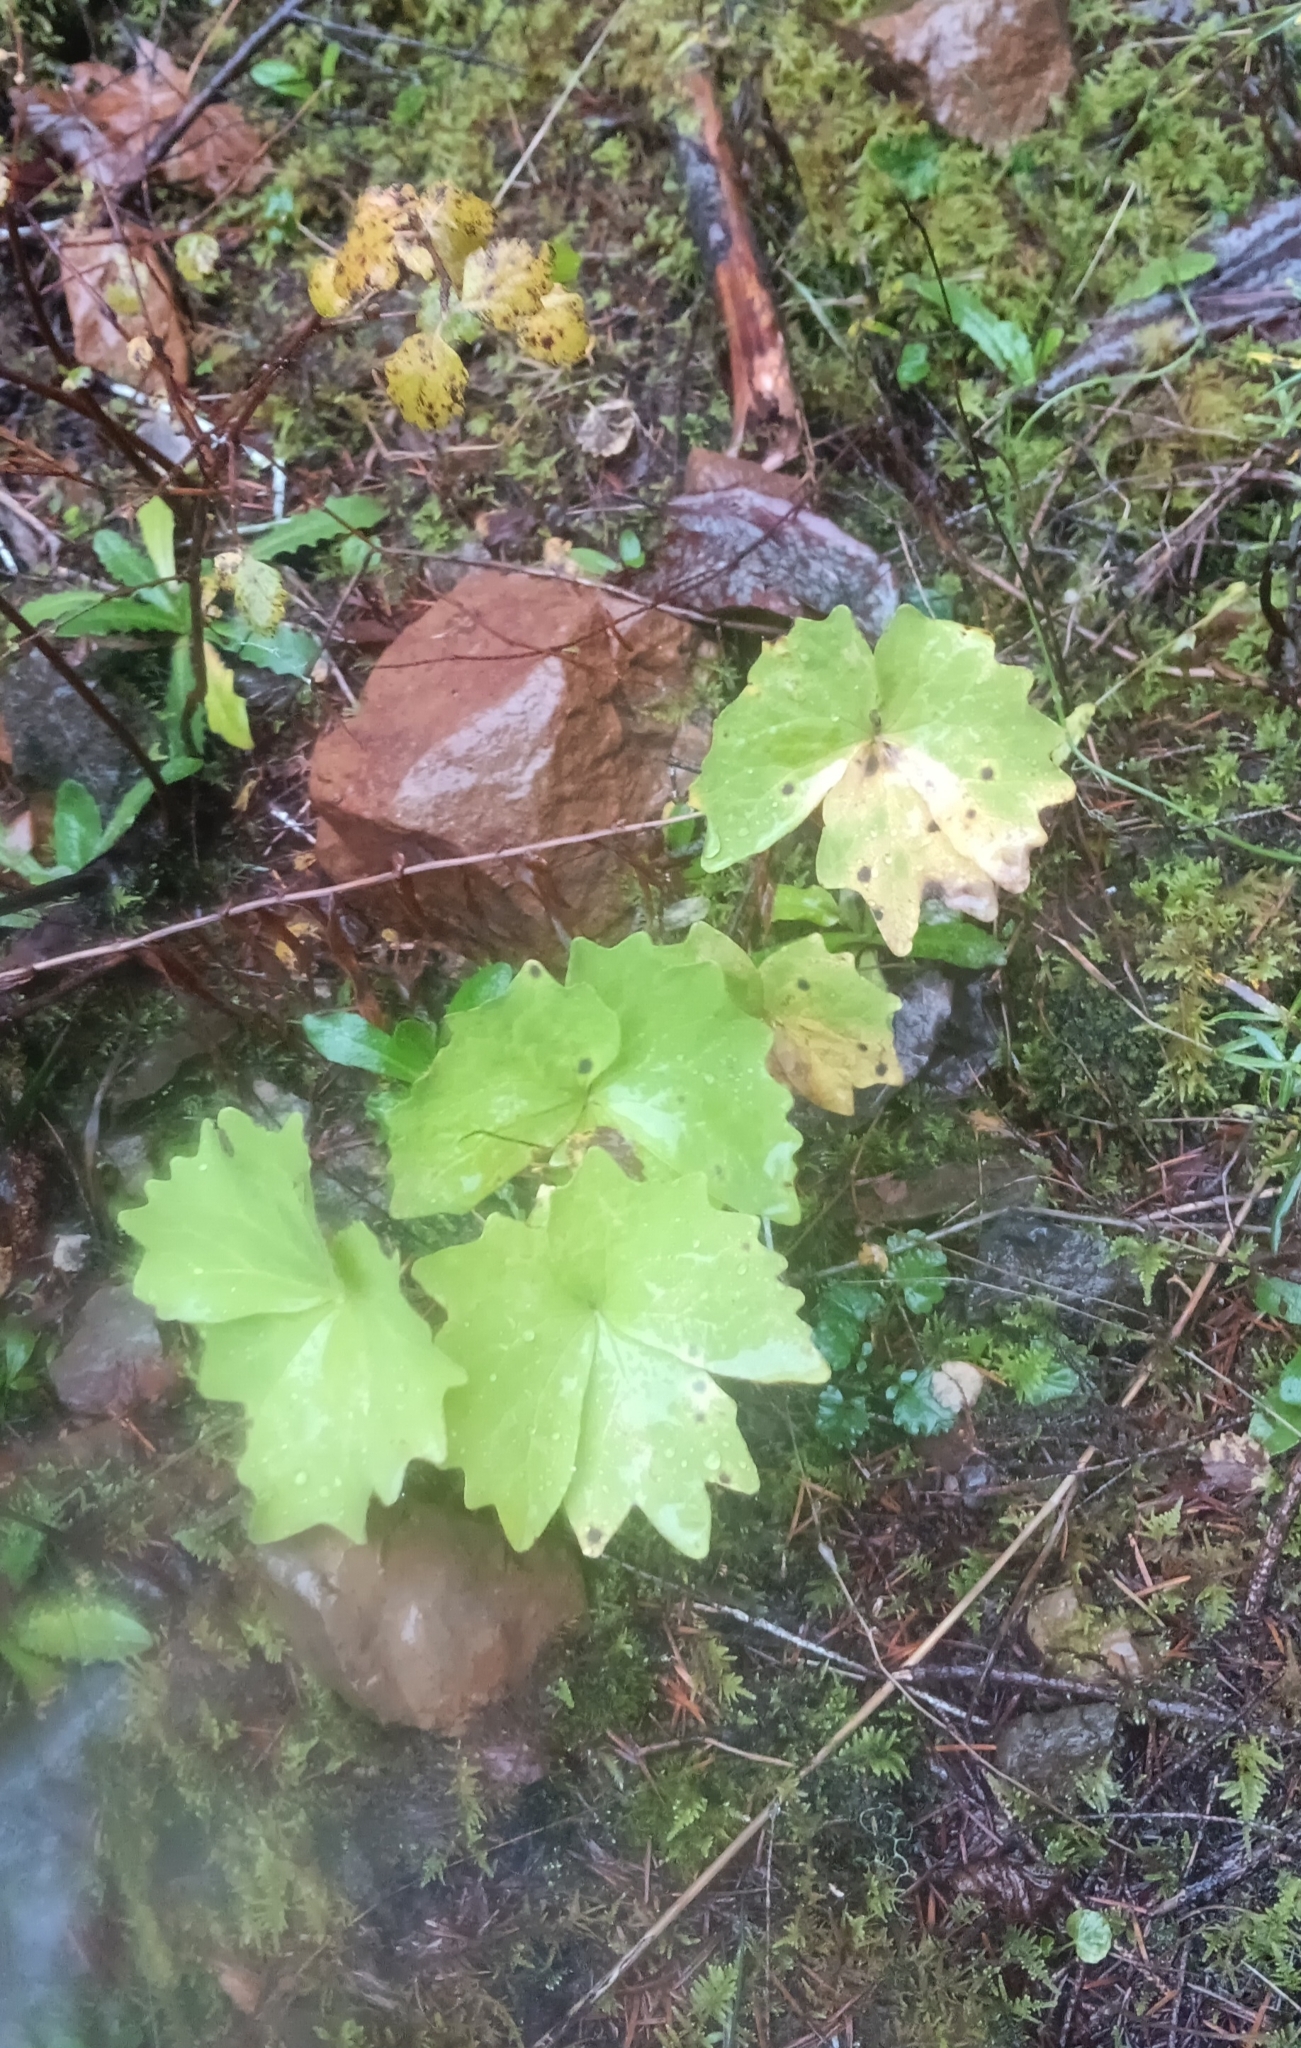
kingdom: Plantae
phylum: Tracheophyta
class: Magnoliopsida
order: Ranunculales
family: Berberidaceae
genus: Achlys
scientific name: Achlys triphylla
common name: Vanilla-leaf
